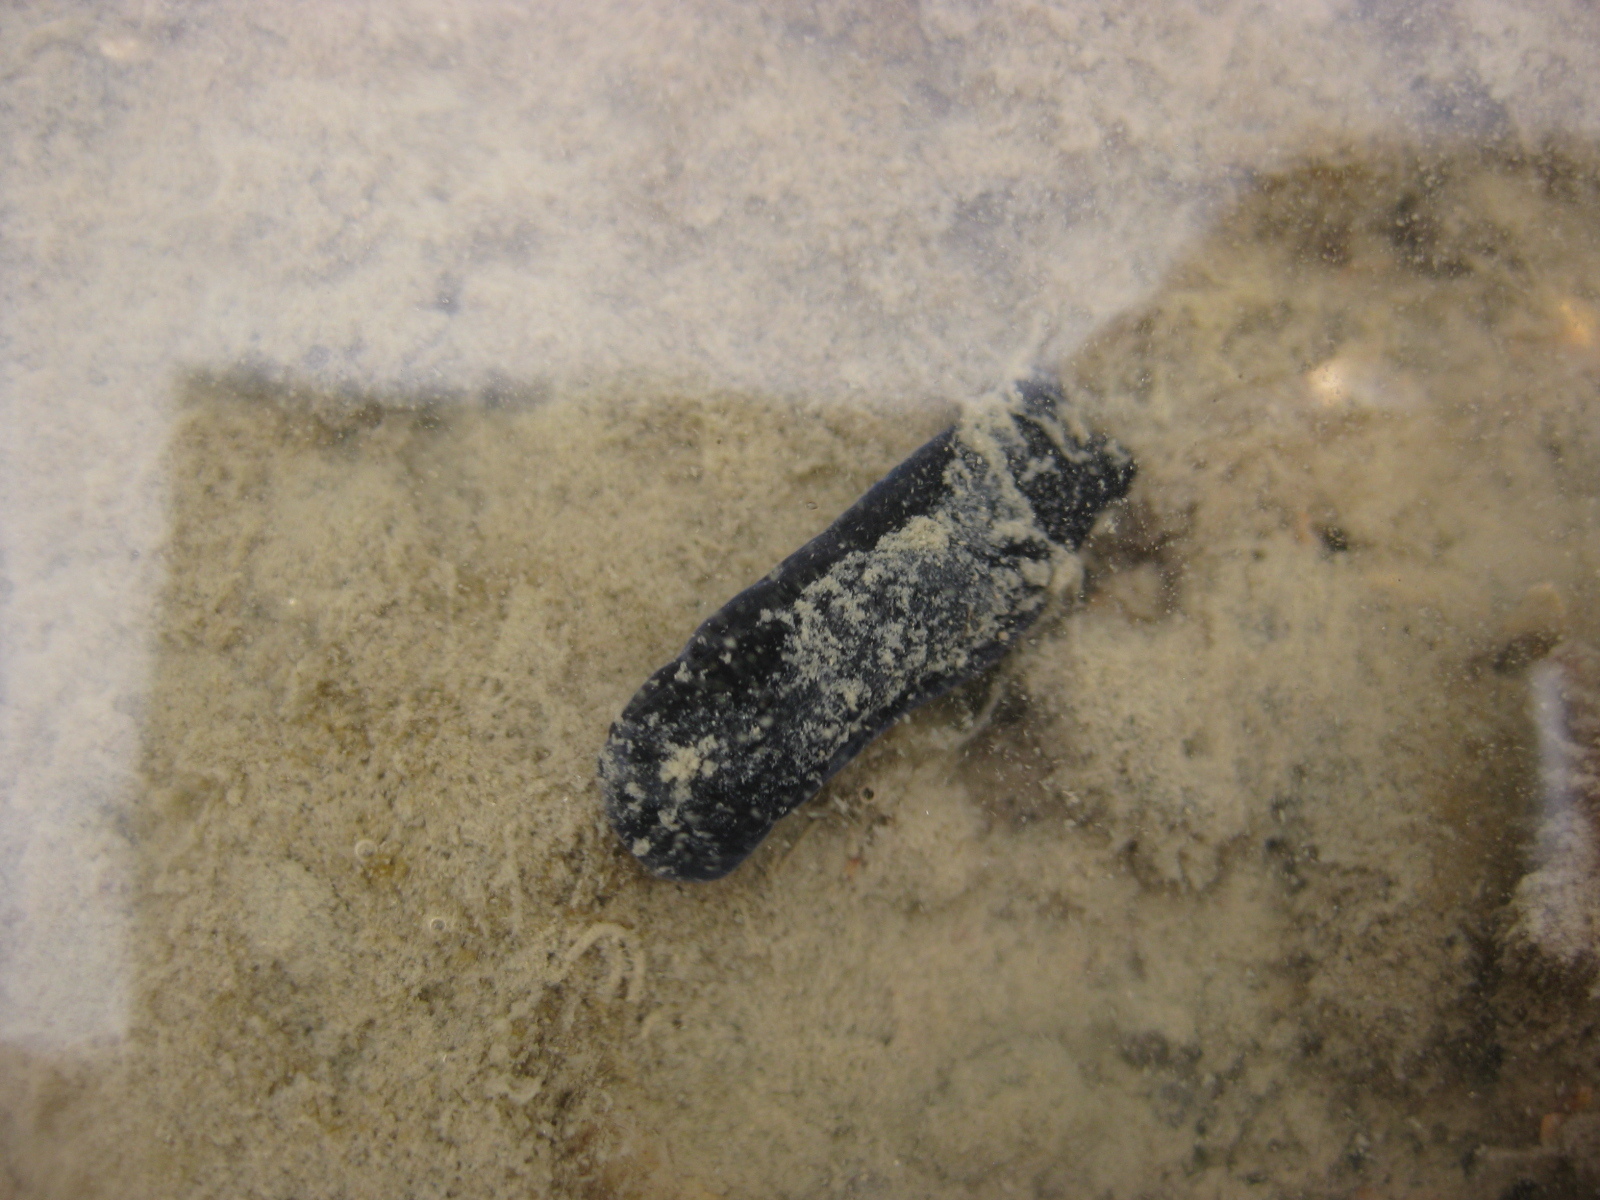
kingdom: Animalia
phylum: Mollusca
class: Gastropoda
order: Cephalaspidea
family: Aglajidae
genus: Melanochlamys
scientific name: Melanochlamys cylindrica
